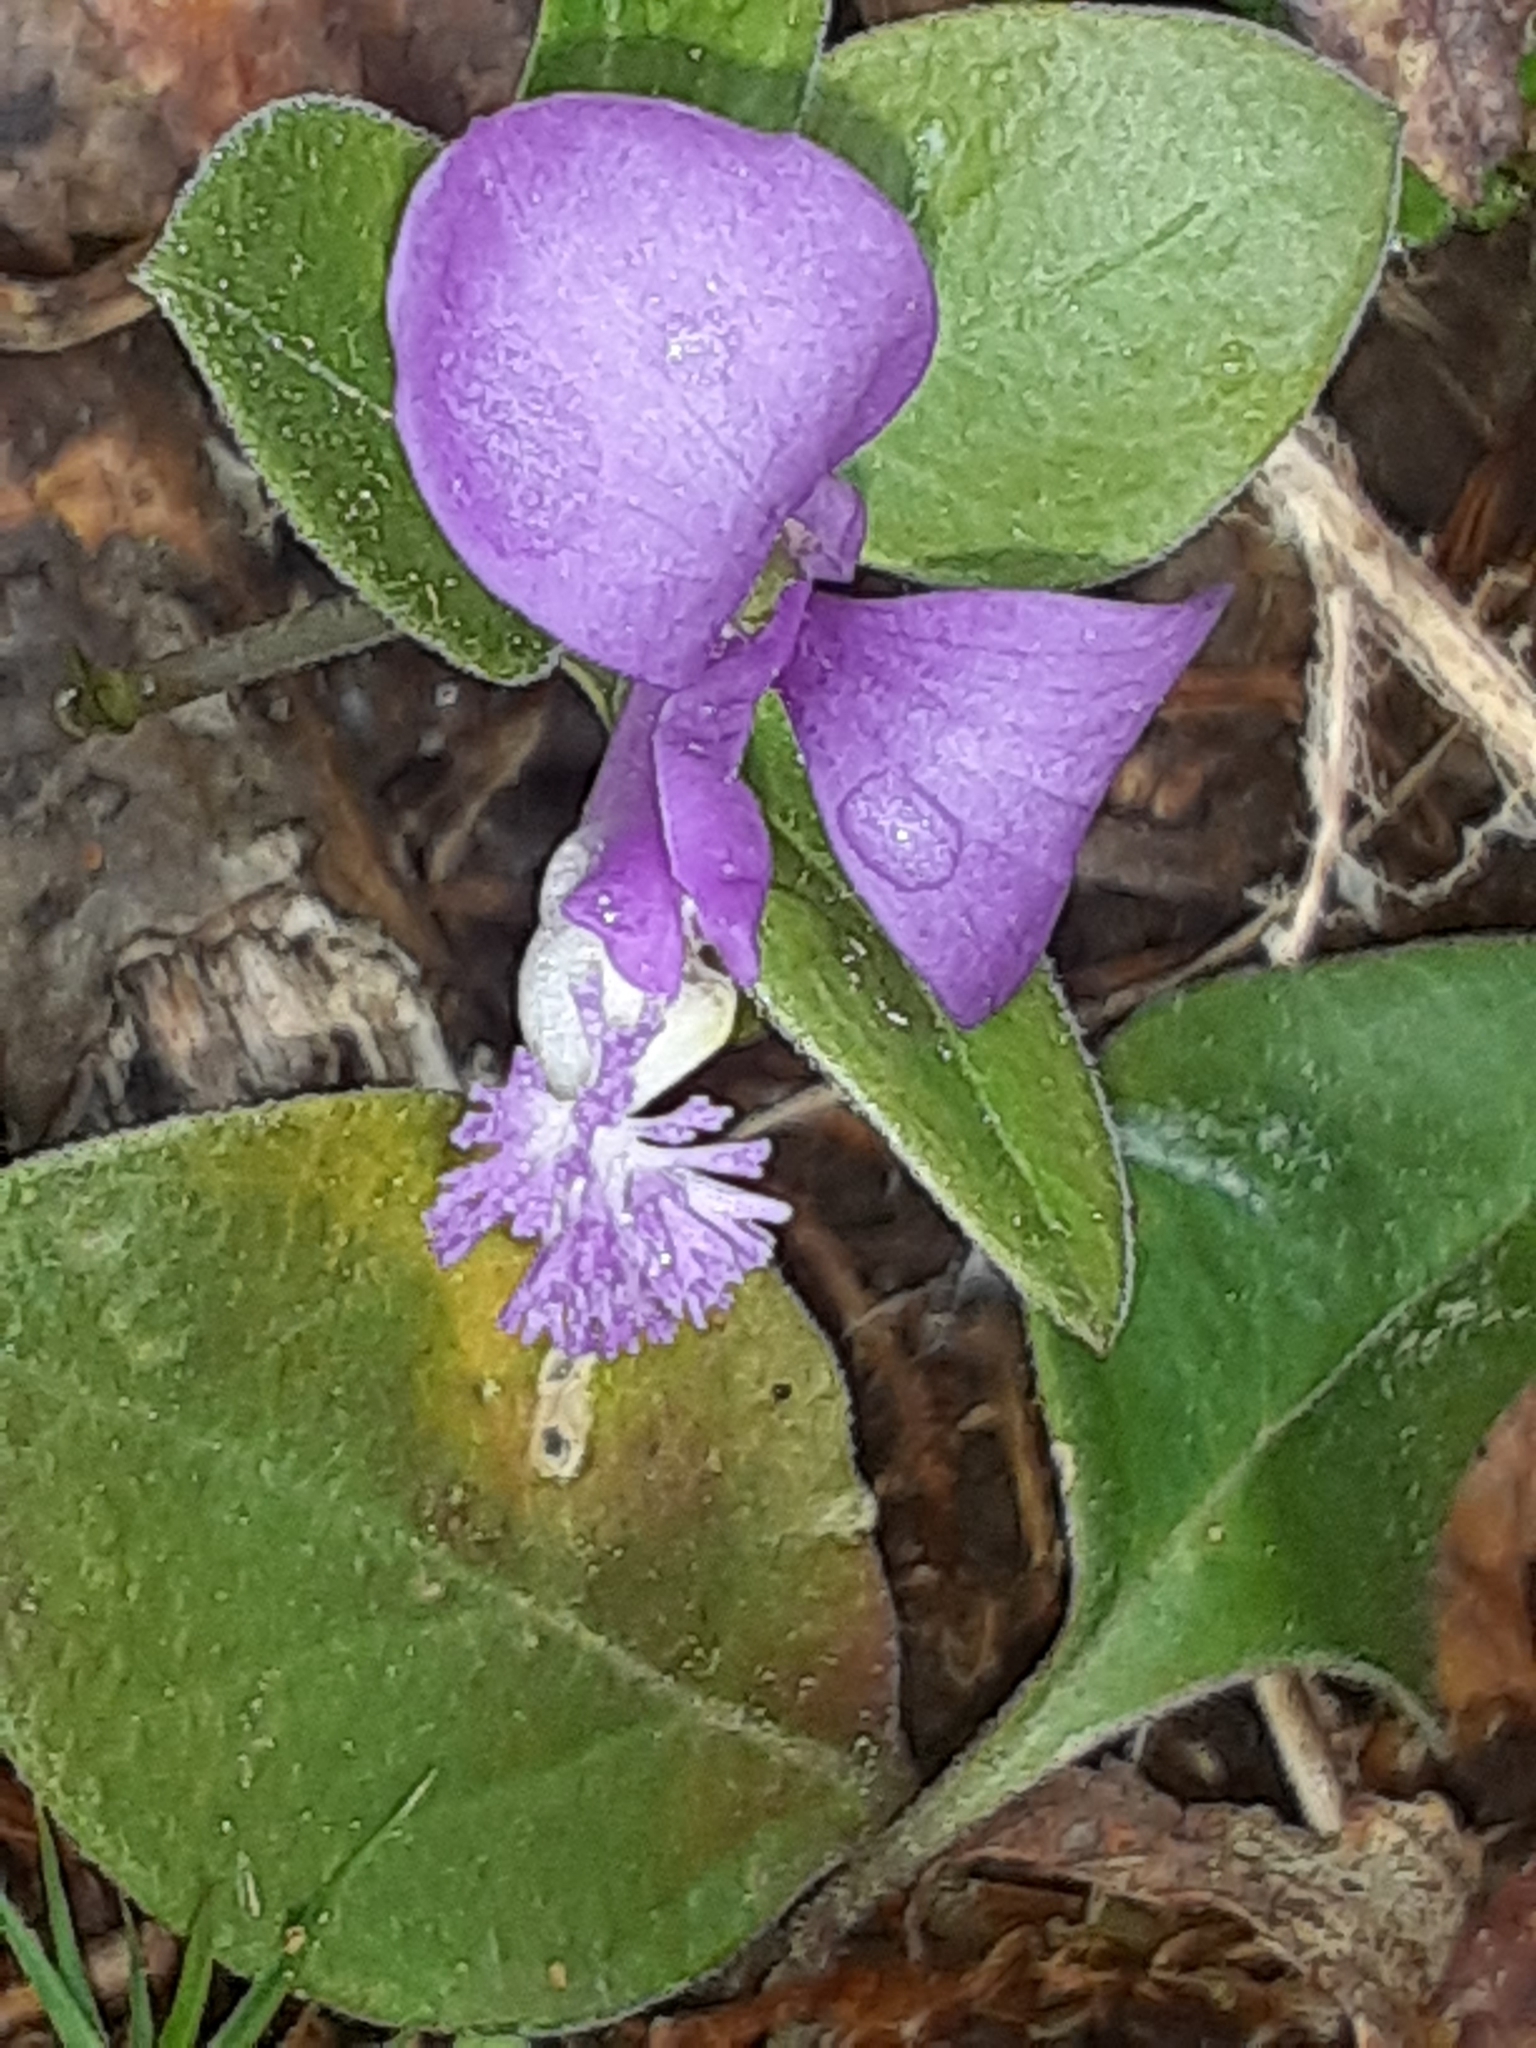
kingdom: Plantae
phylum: Tracheophyta
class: Magnoliopsida
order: Fabales
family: Polygalaceae
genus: Polygaloides
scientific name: Polygaloides paucifolia
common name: Bird-on-the-wing
